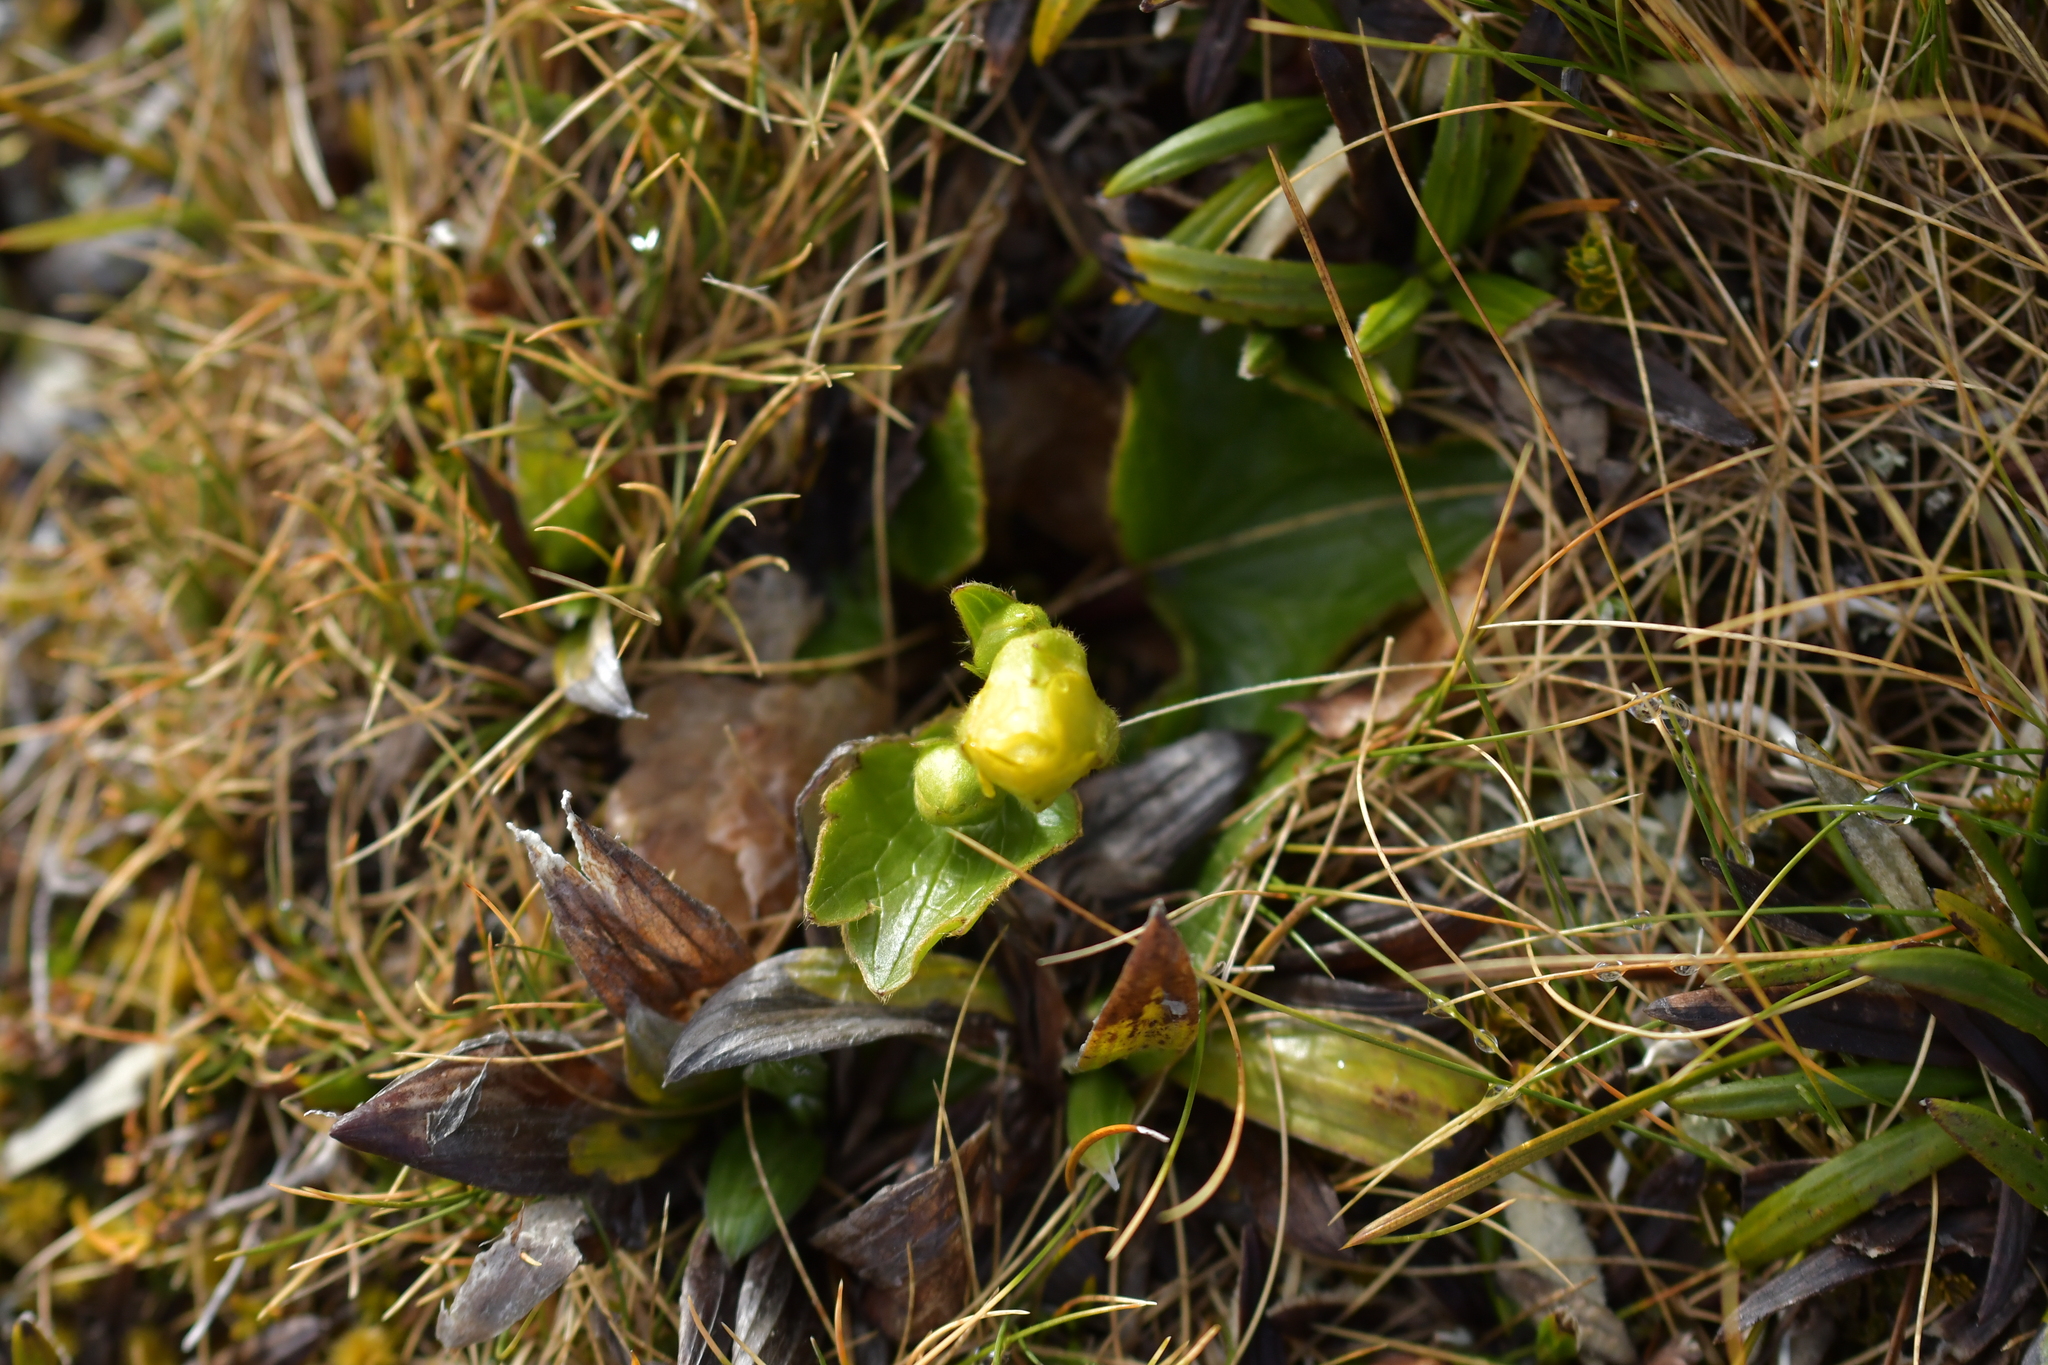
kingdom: Plantae
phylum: Tracheophyta
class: Magnoliopsida
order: Ranunculales
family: Ranunculaceae
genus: Ranunculus
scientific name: Ranunculus insignis
